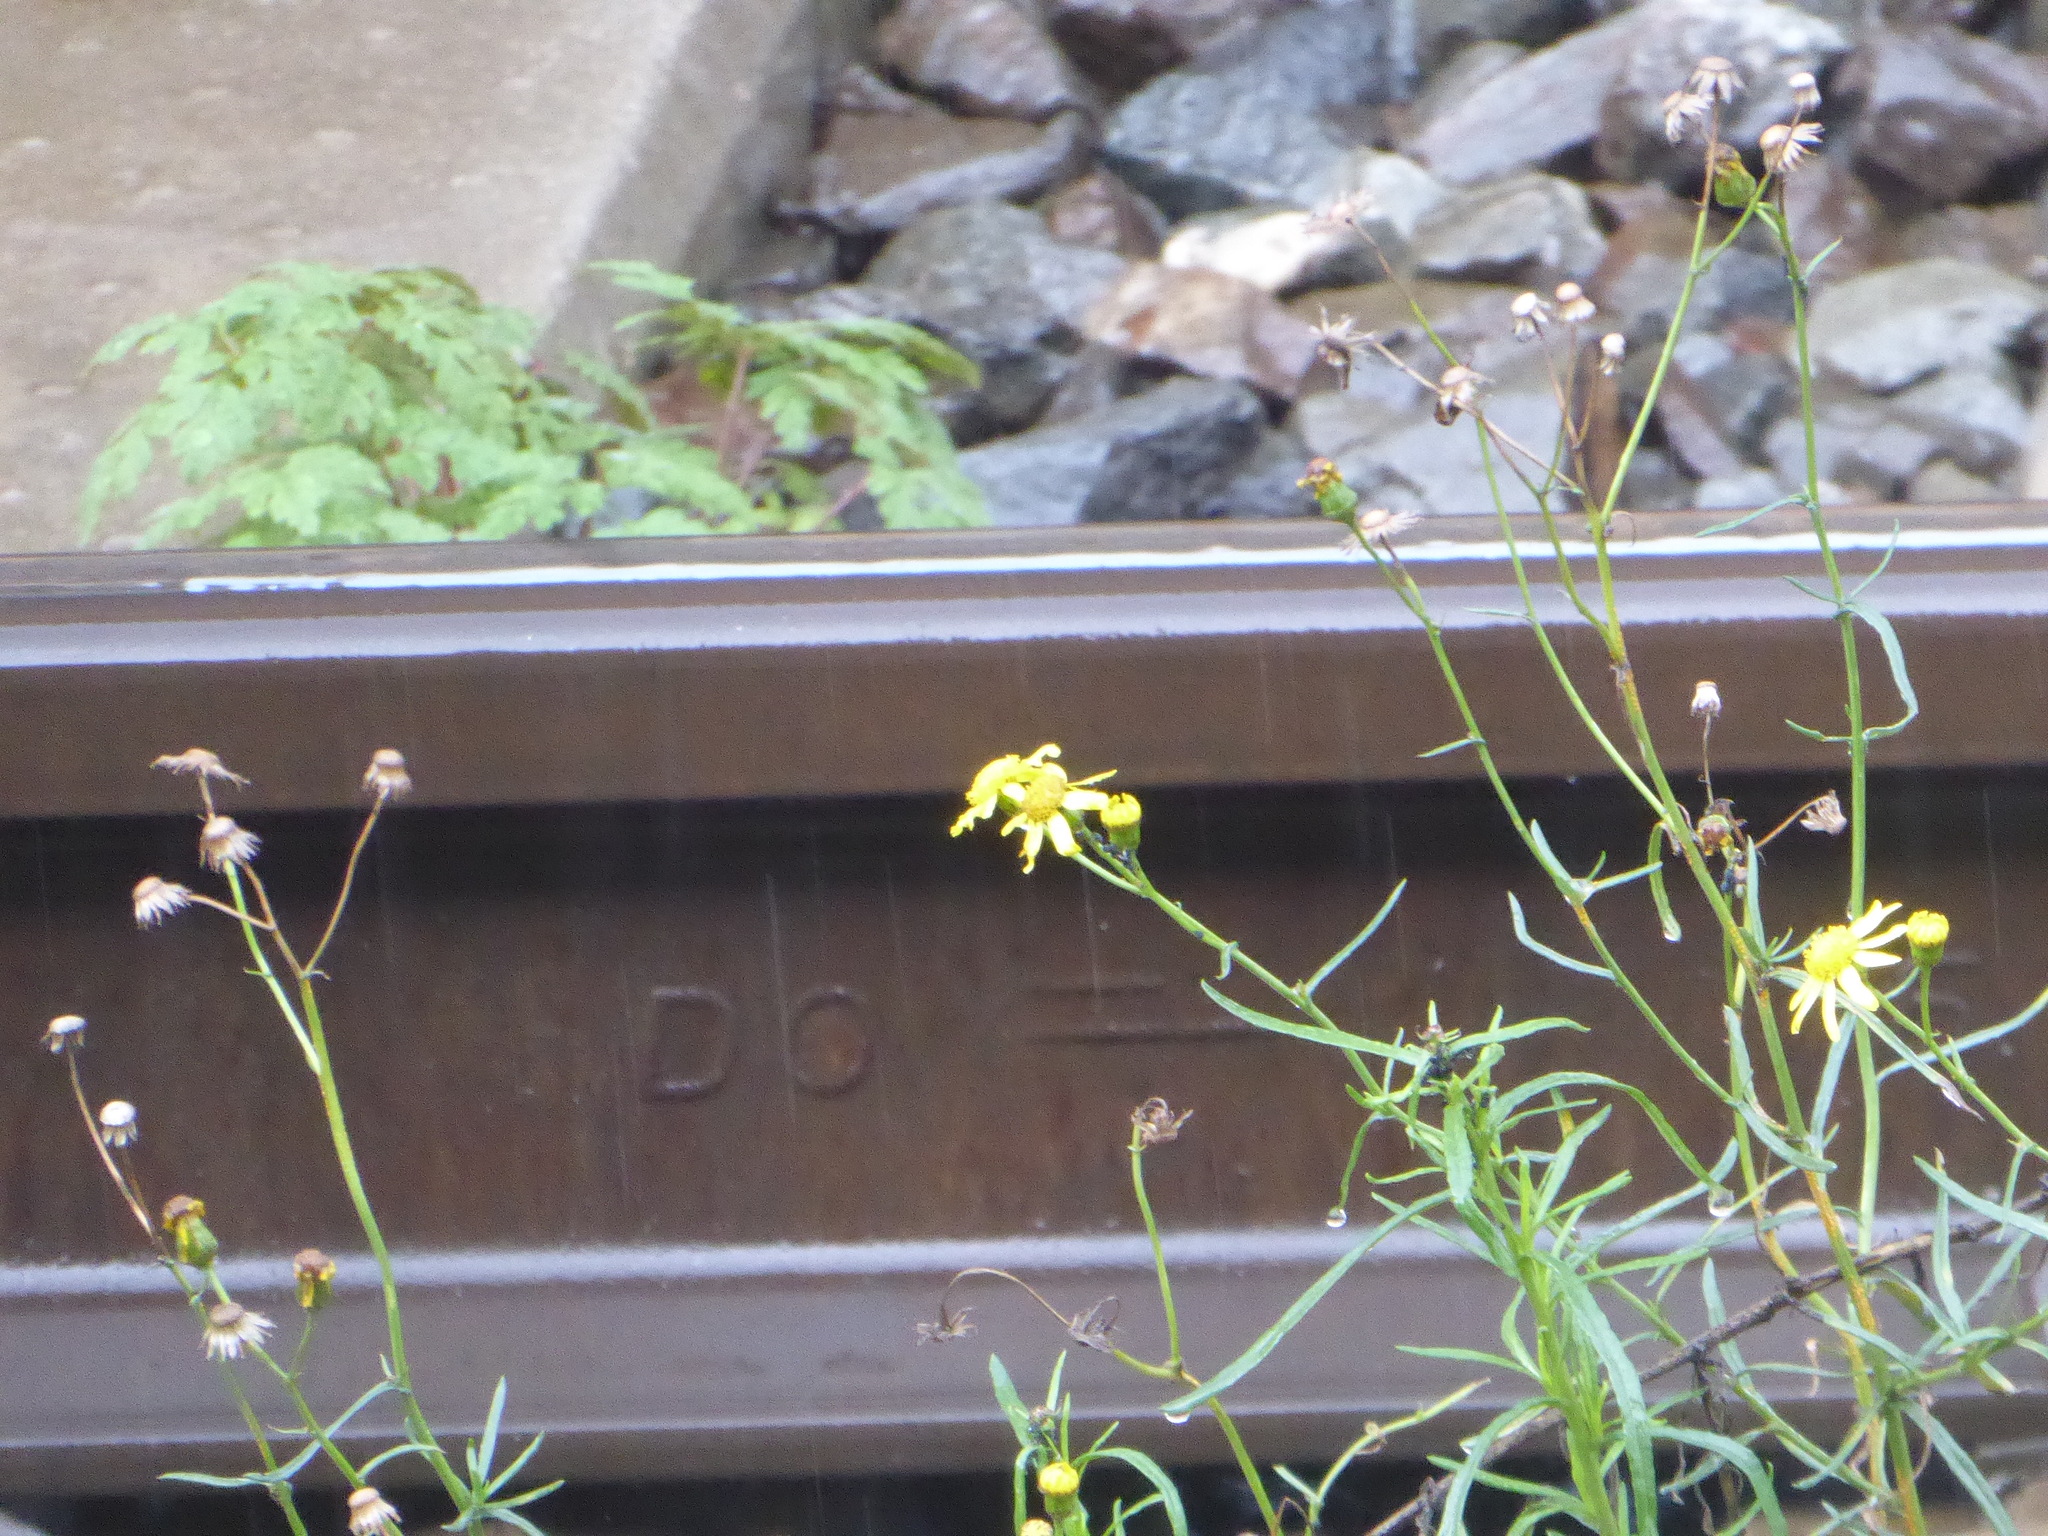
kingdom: Plantae
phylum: Tracheophyta
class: Magnoliopsida
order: Asterales
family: Asteraceae
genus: Senecio
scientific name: Senecio inaequidens
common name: Narrow-leaved ragwort
